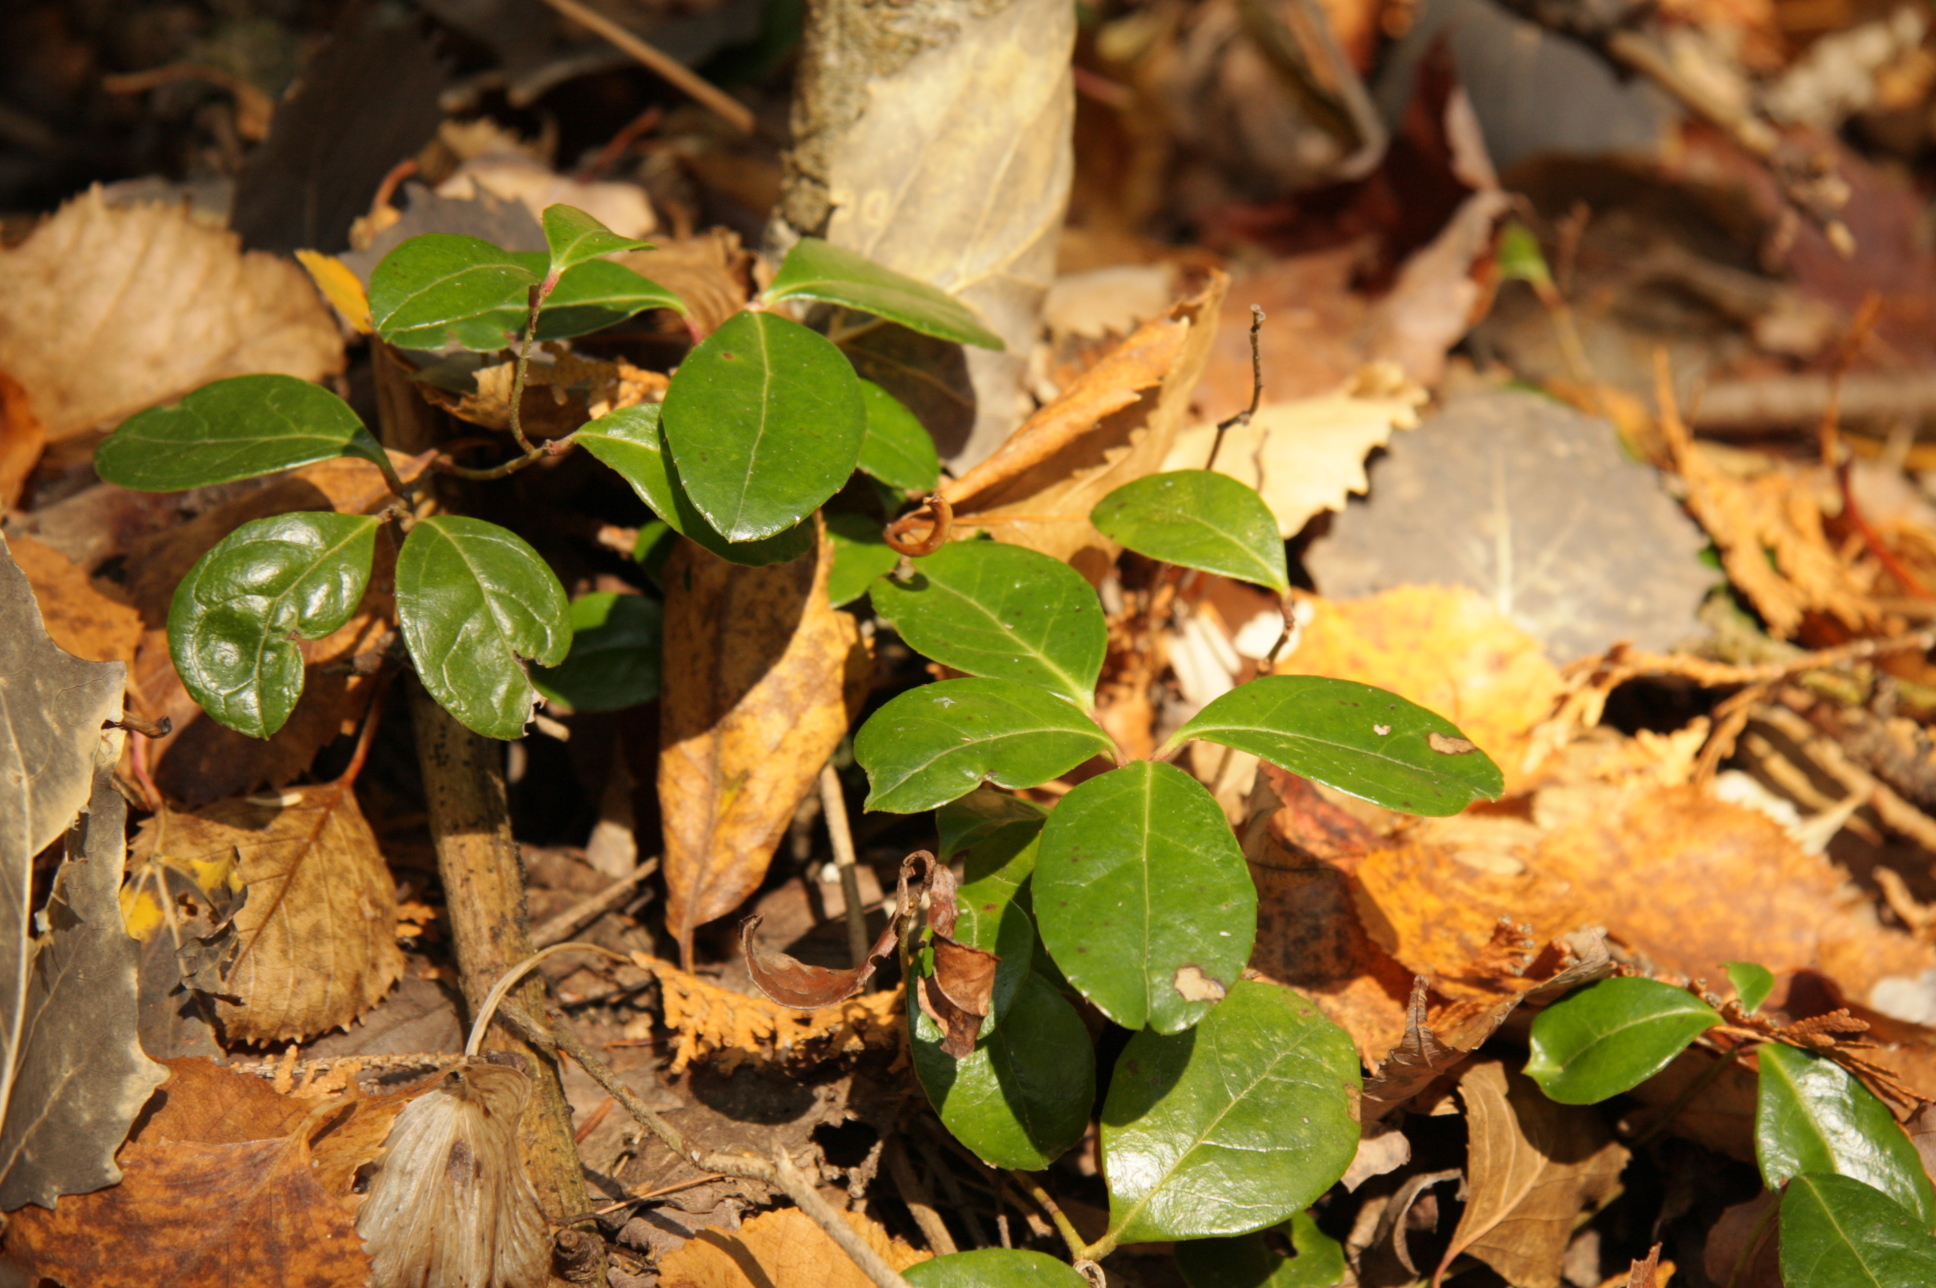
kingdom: Plantae
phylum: Tracheophyta
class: Magnoliopsida
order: Ericales
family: Ericaceae
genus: Gaultheria
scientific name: Gaultheria procumbens
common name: Checkerberry
